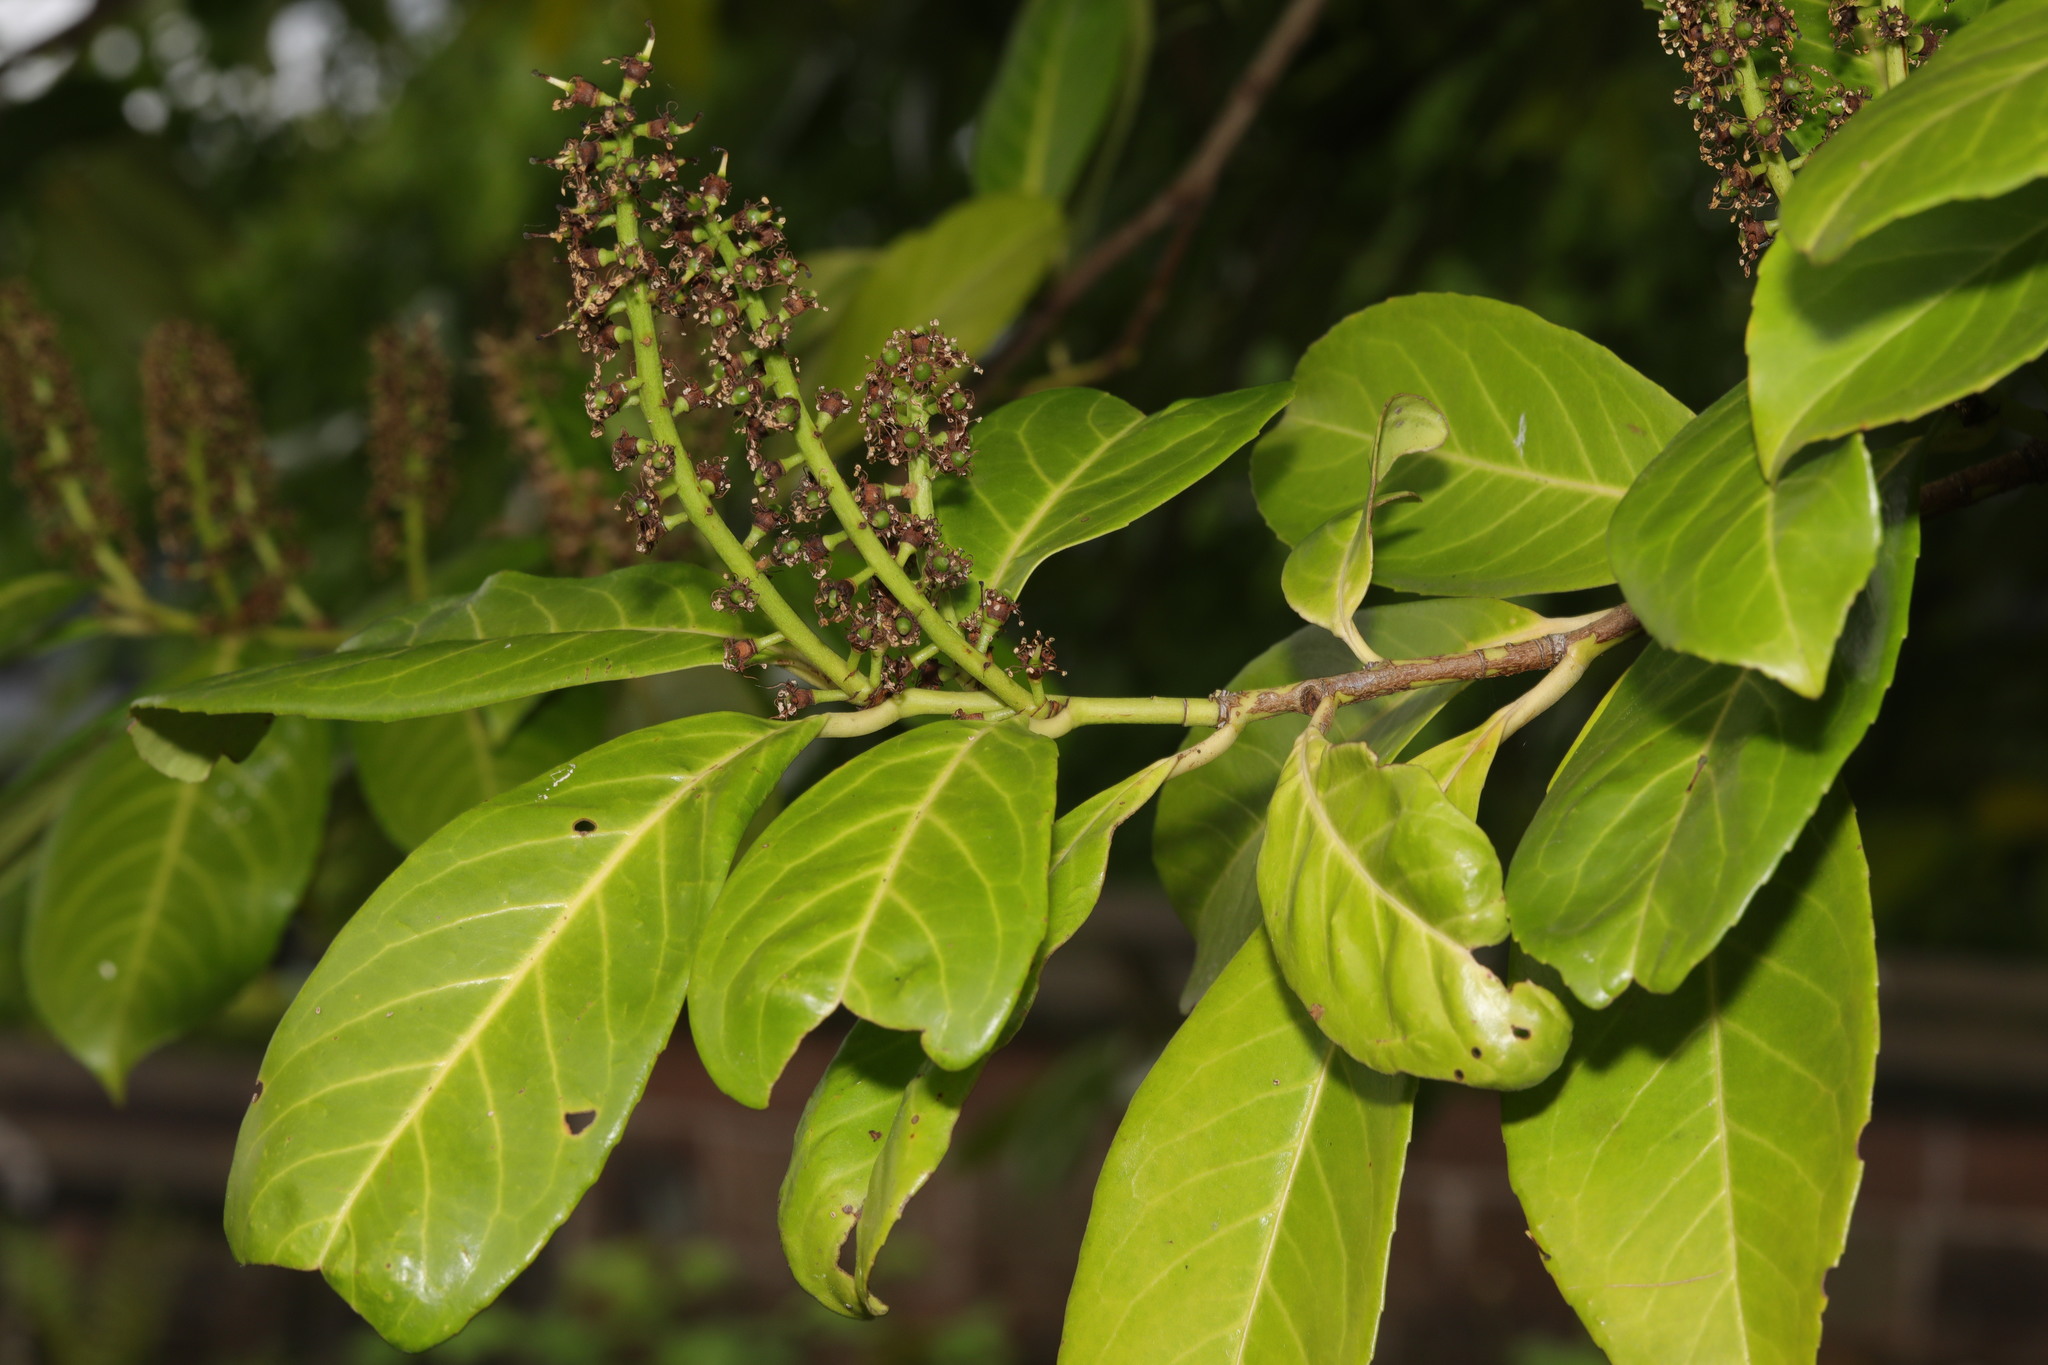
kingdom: Plantae
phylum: Tracheophyta
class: Magnoliopsida
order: Rosales
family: Rosaceae
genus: Prunus
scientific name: Prunus laurocerasus
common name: Cherry laurel
